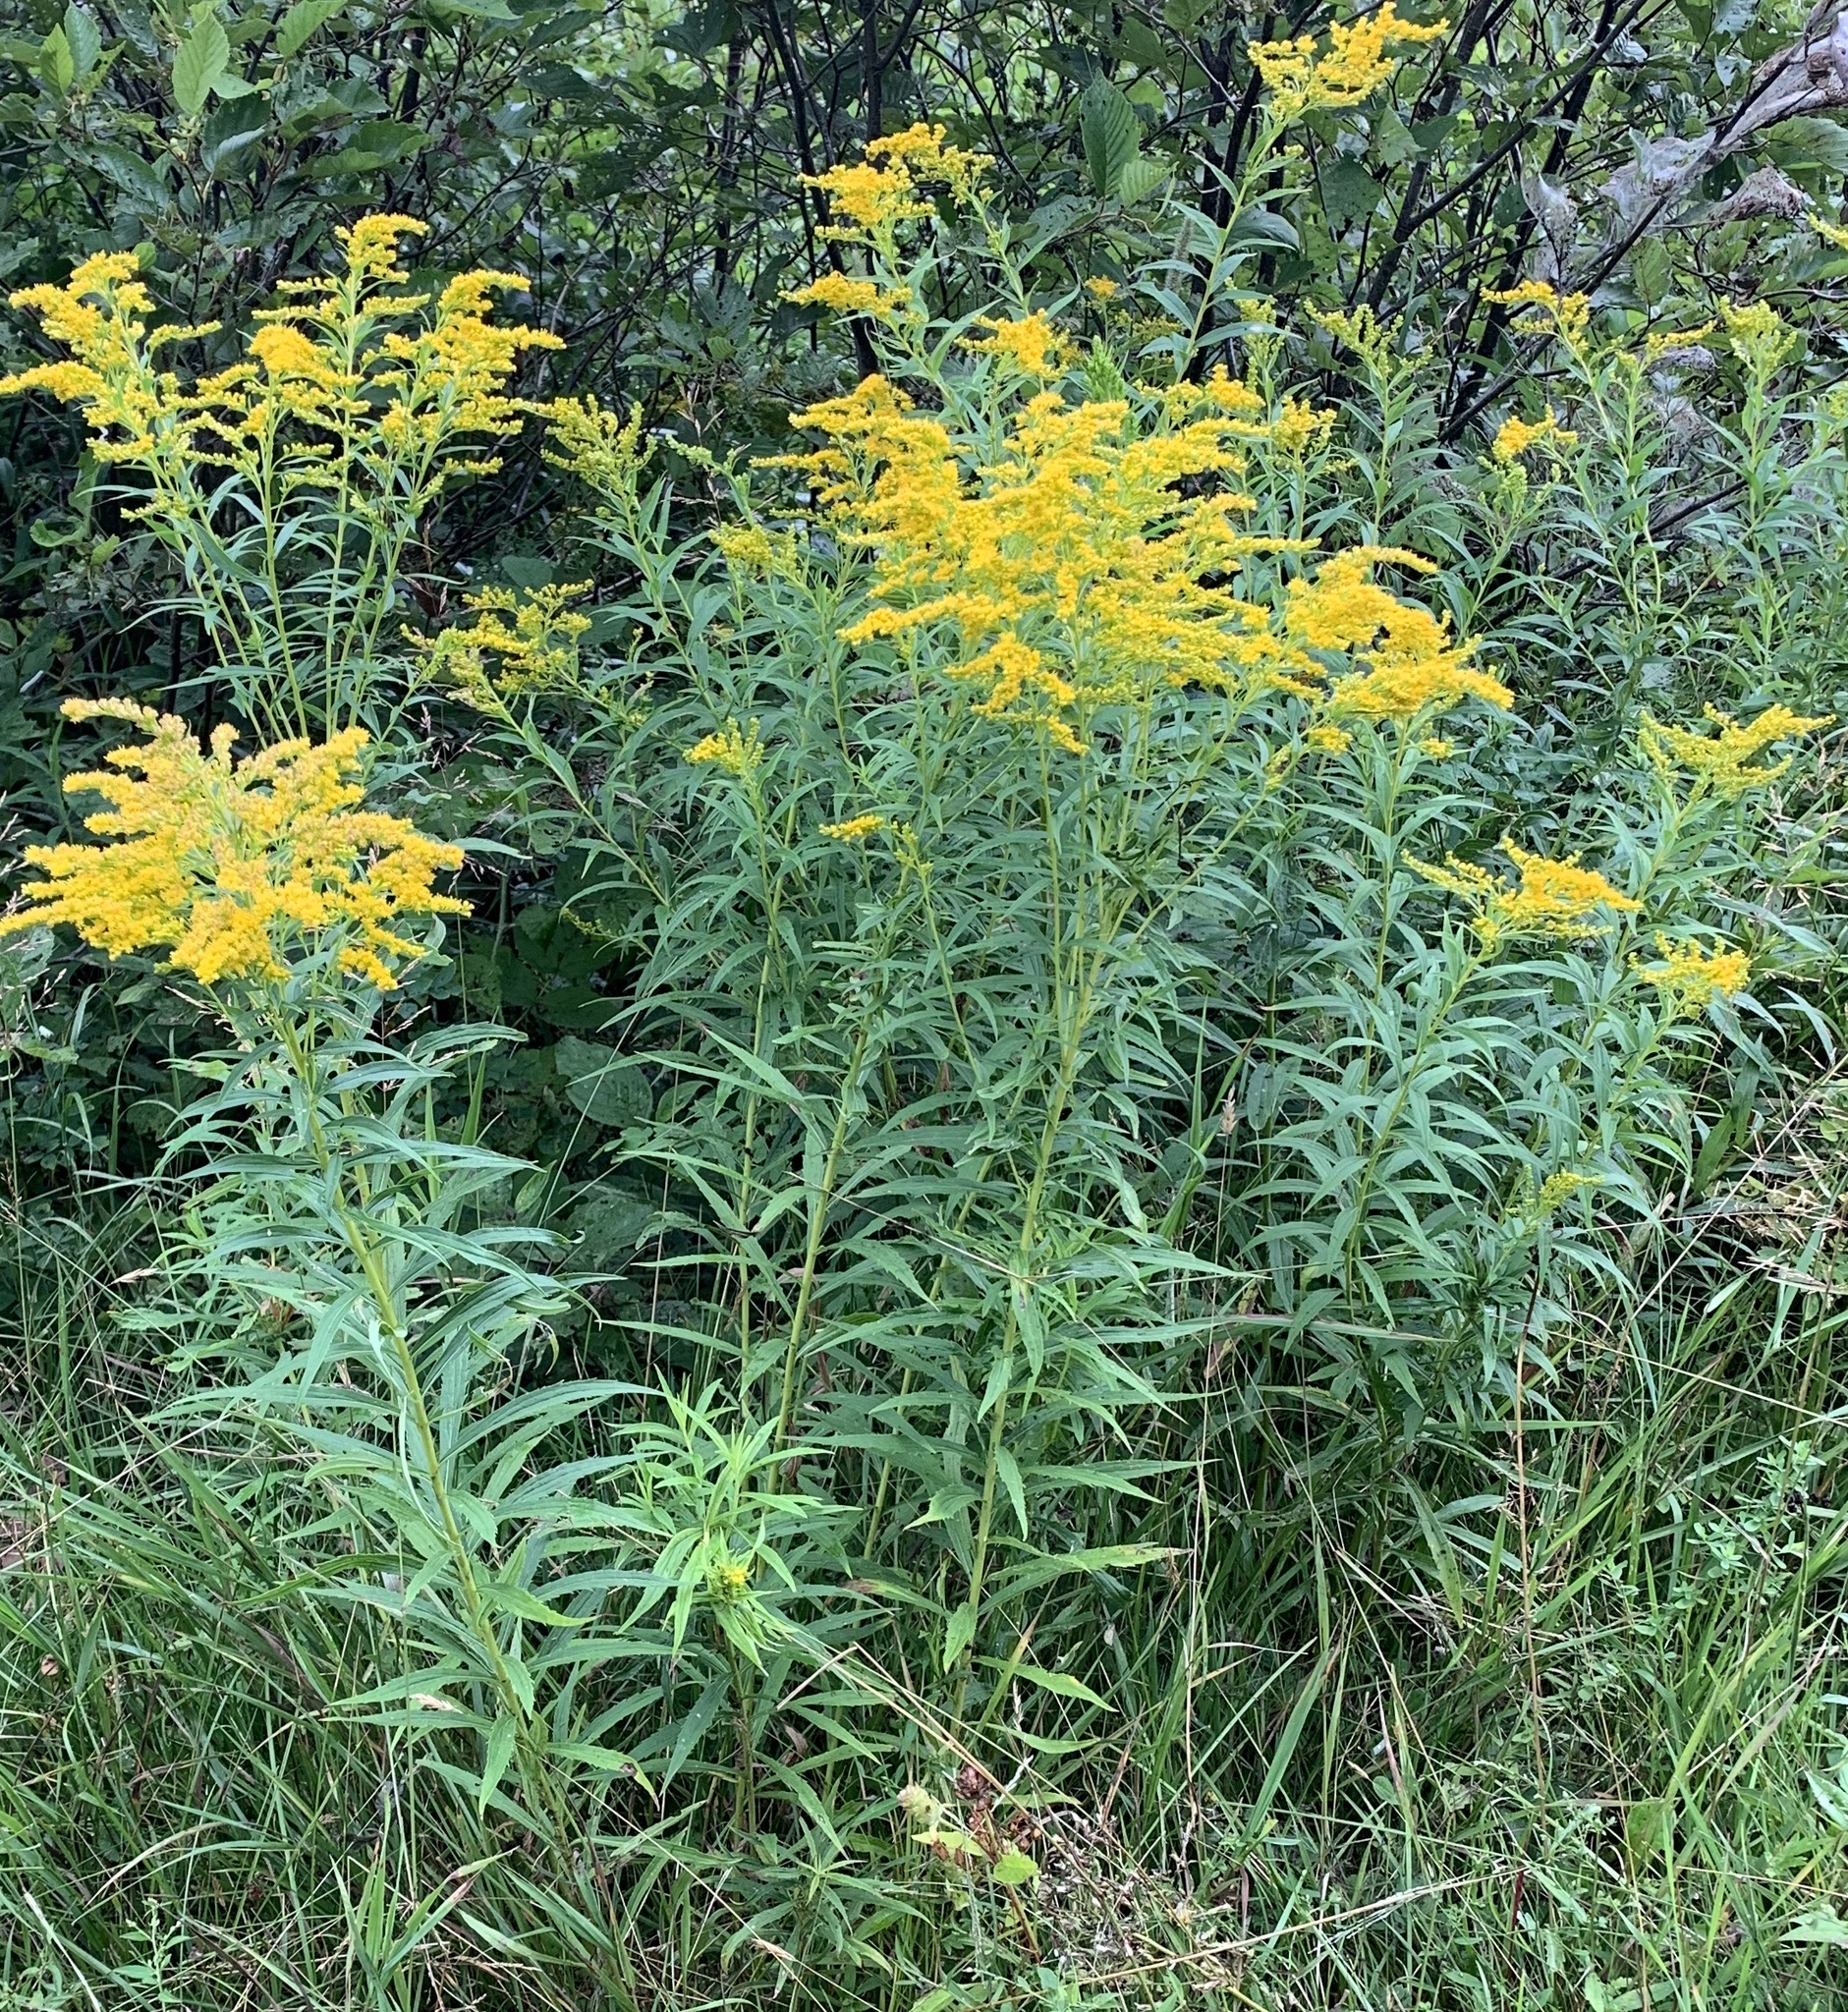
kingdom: Plantae
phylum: Tracheophyta
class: Magnoliopsida
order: Asterales
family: Asteraceae
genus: Solidago
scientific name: Solidago canadensis
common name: Canada goldenrod
